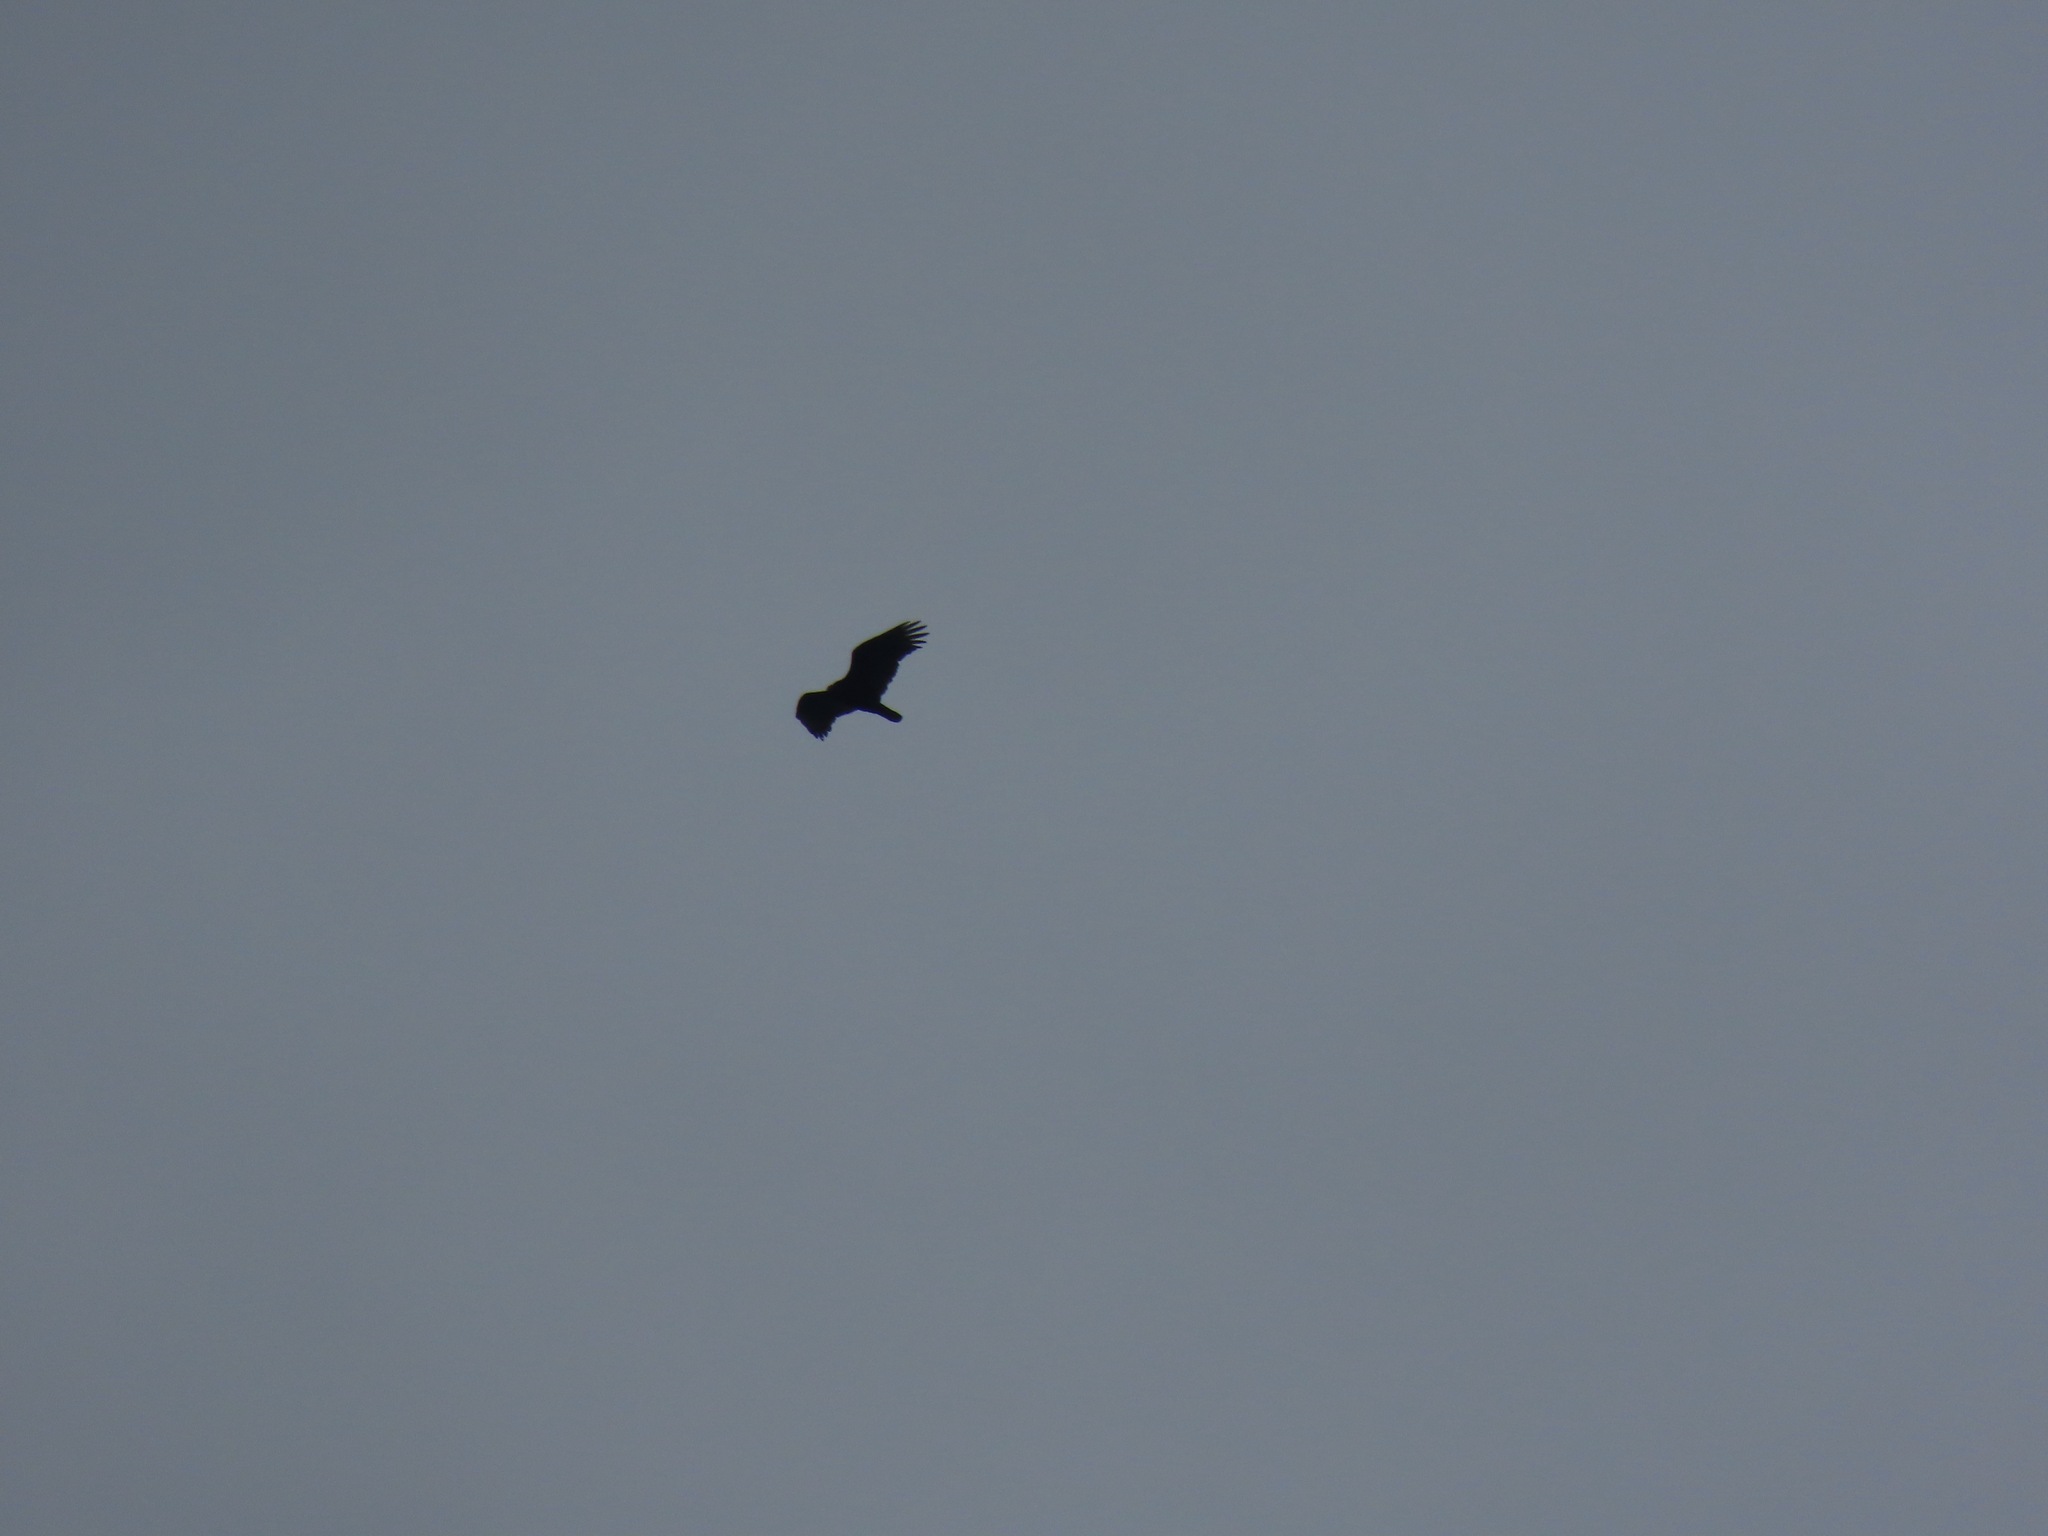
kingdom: Animalia
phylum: Chordata
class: Aves
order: Accipitriformes
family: Cathartidae
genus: Cathartes
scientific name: Cathartes aura
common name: Turkey vulture
